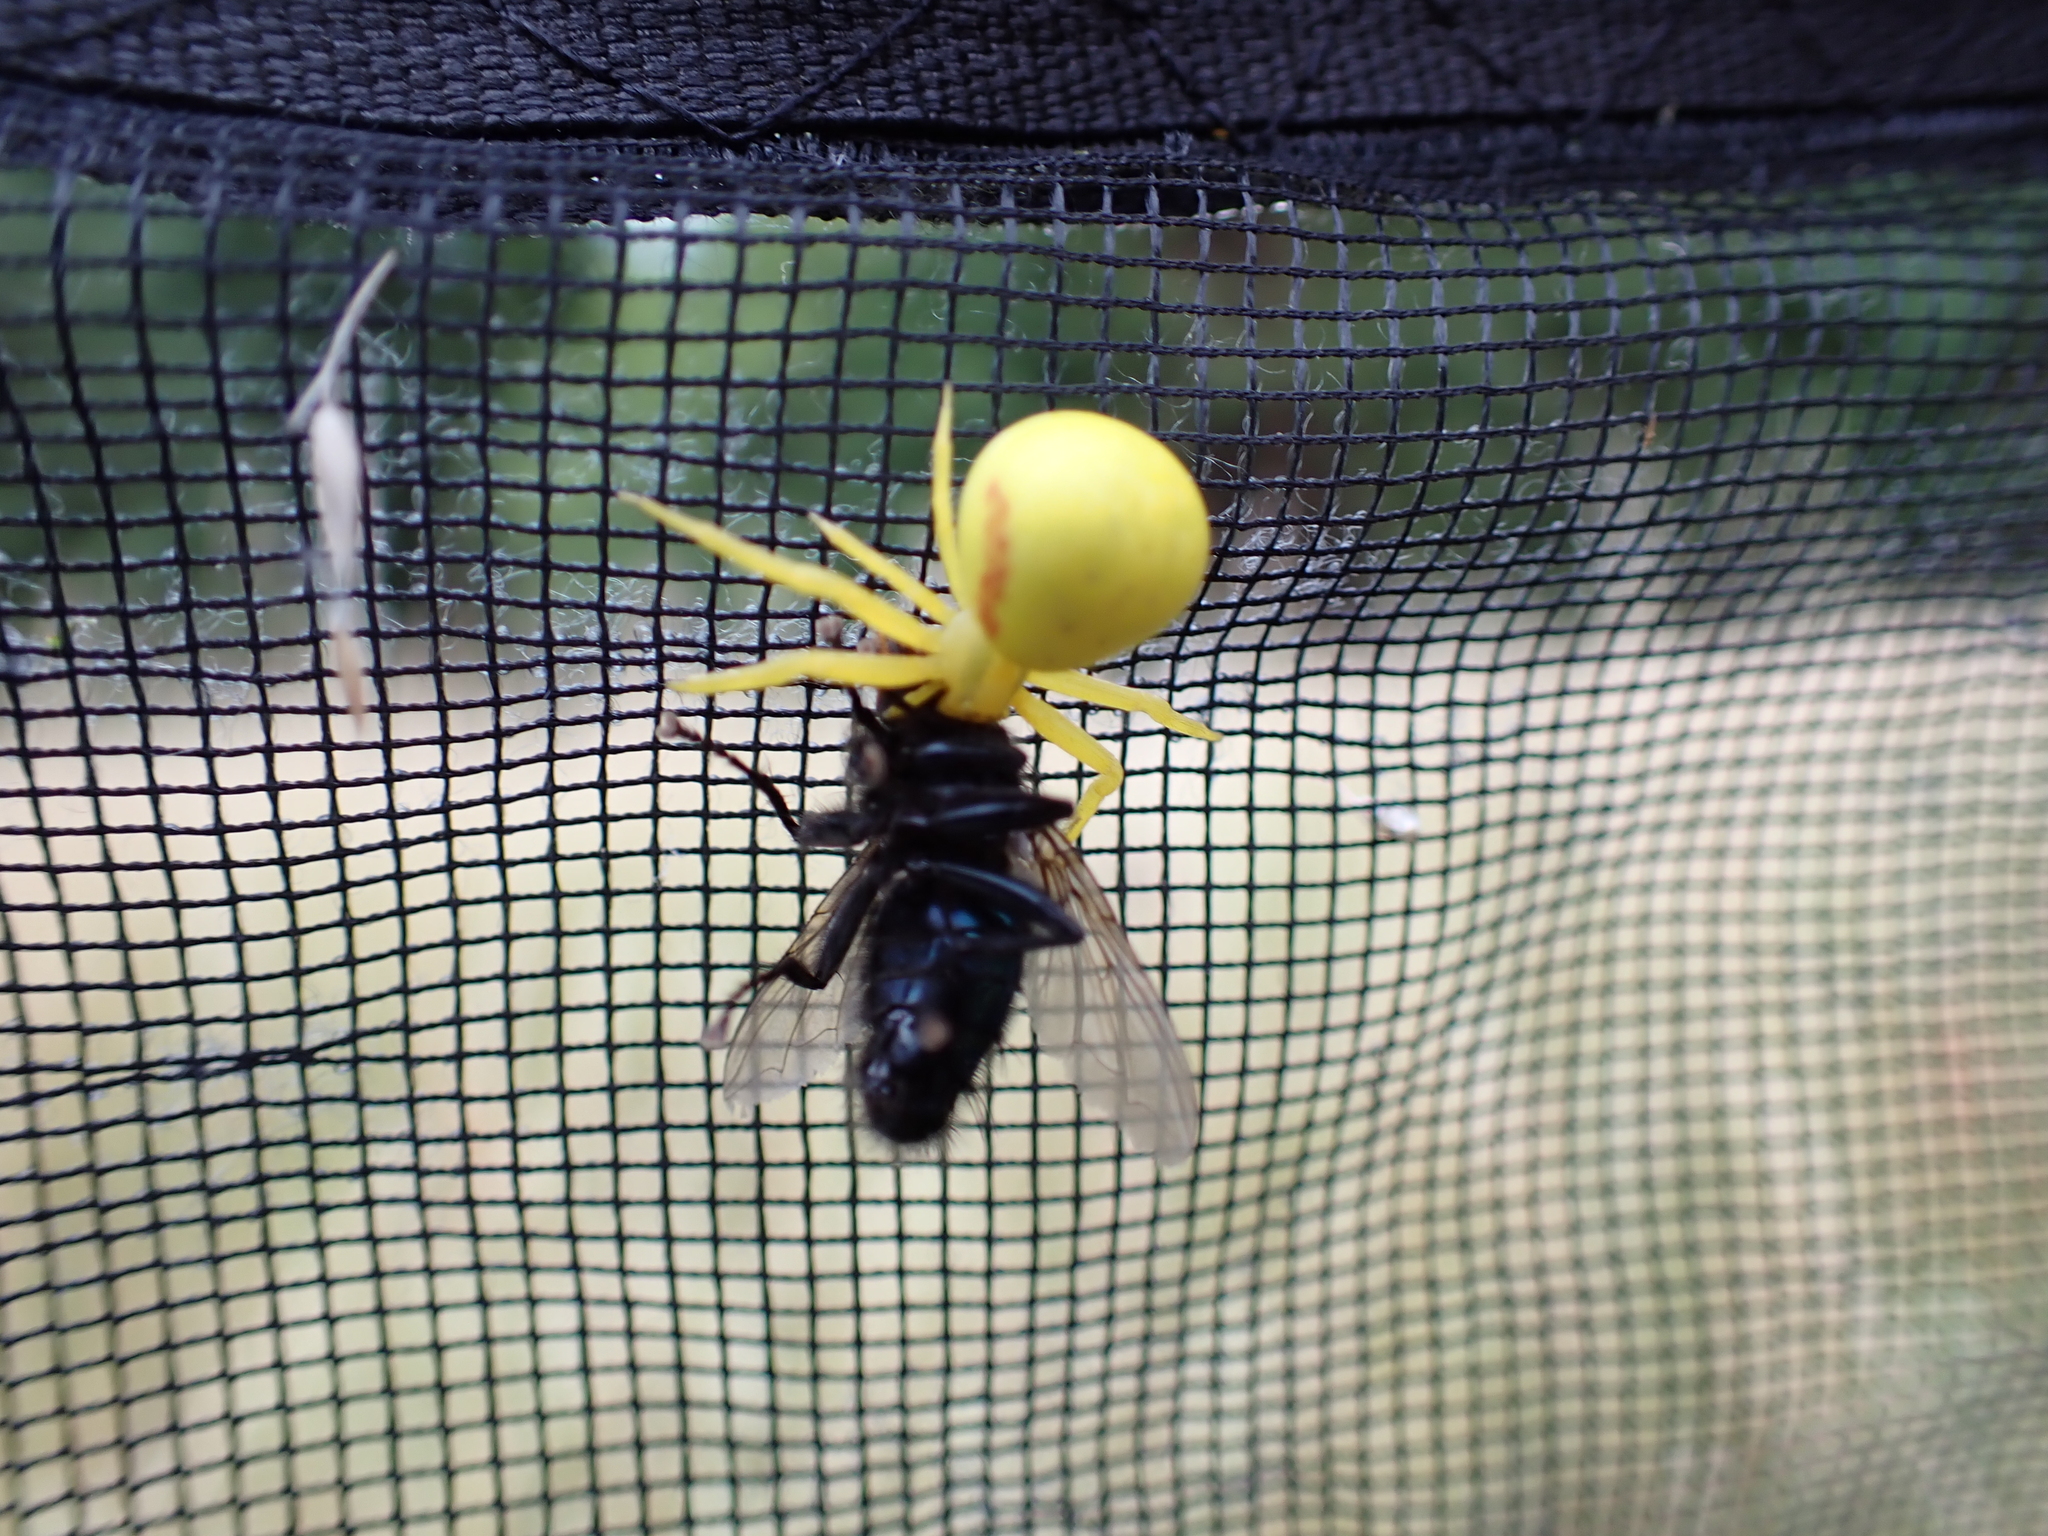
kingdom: Animalia
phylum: Arthropoda
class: Arachnida
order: Araneae
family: Thomisidae
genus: Misumena
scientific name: Misumena vatia
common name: Goldenrod crab spider
